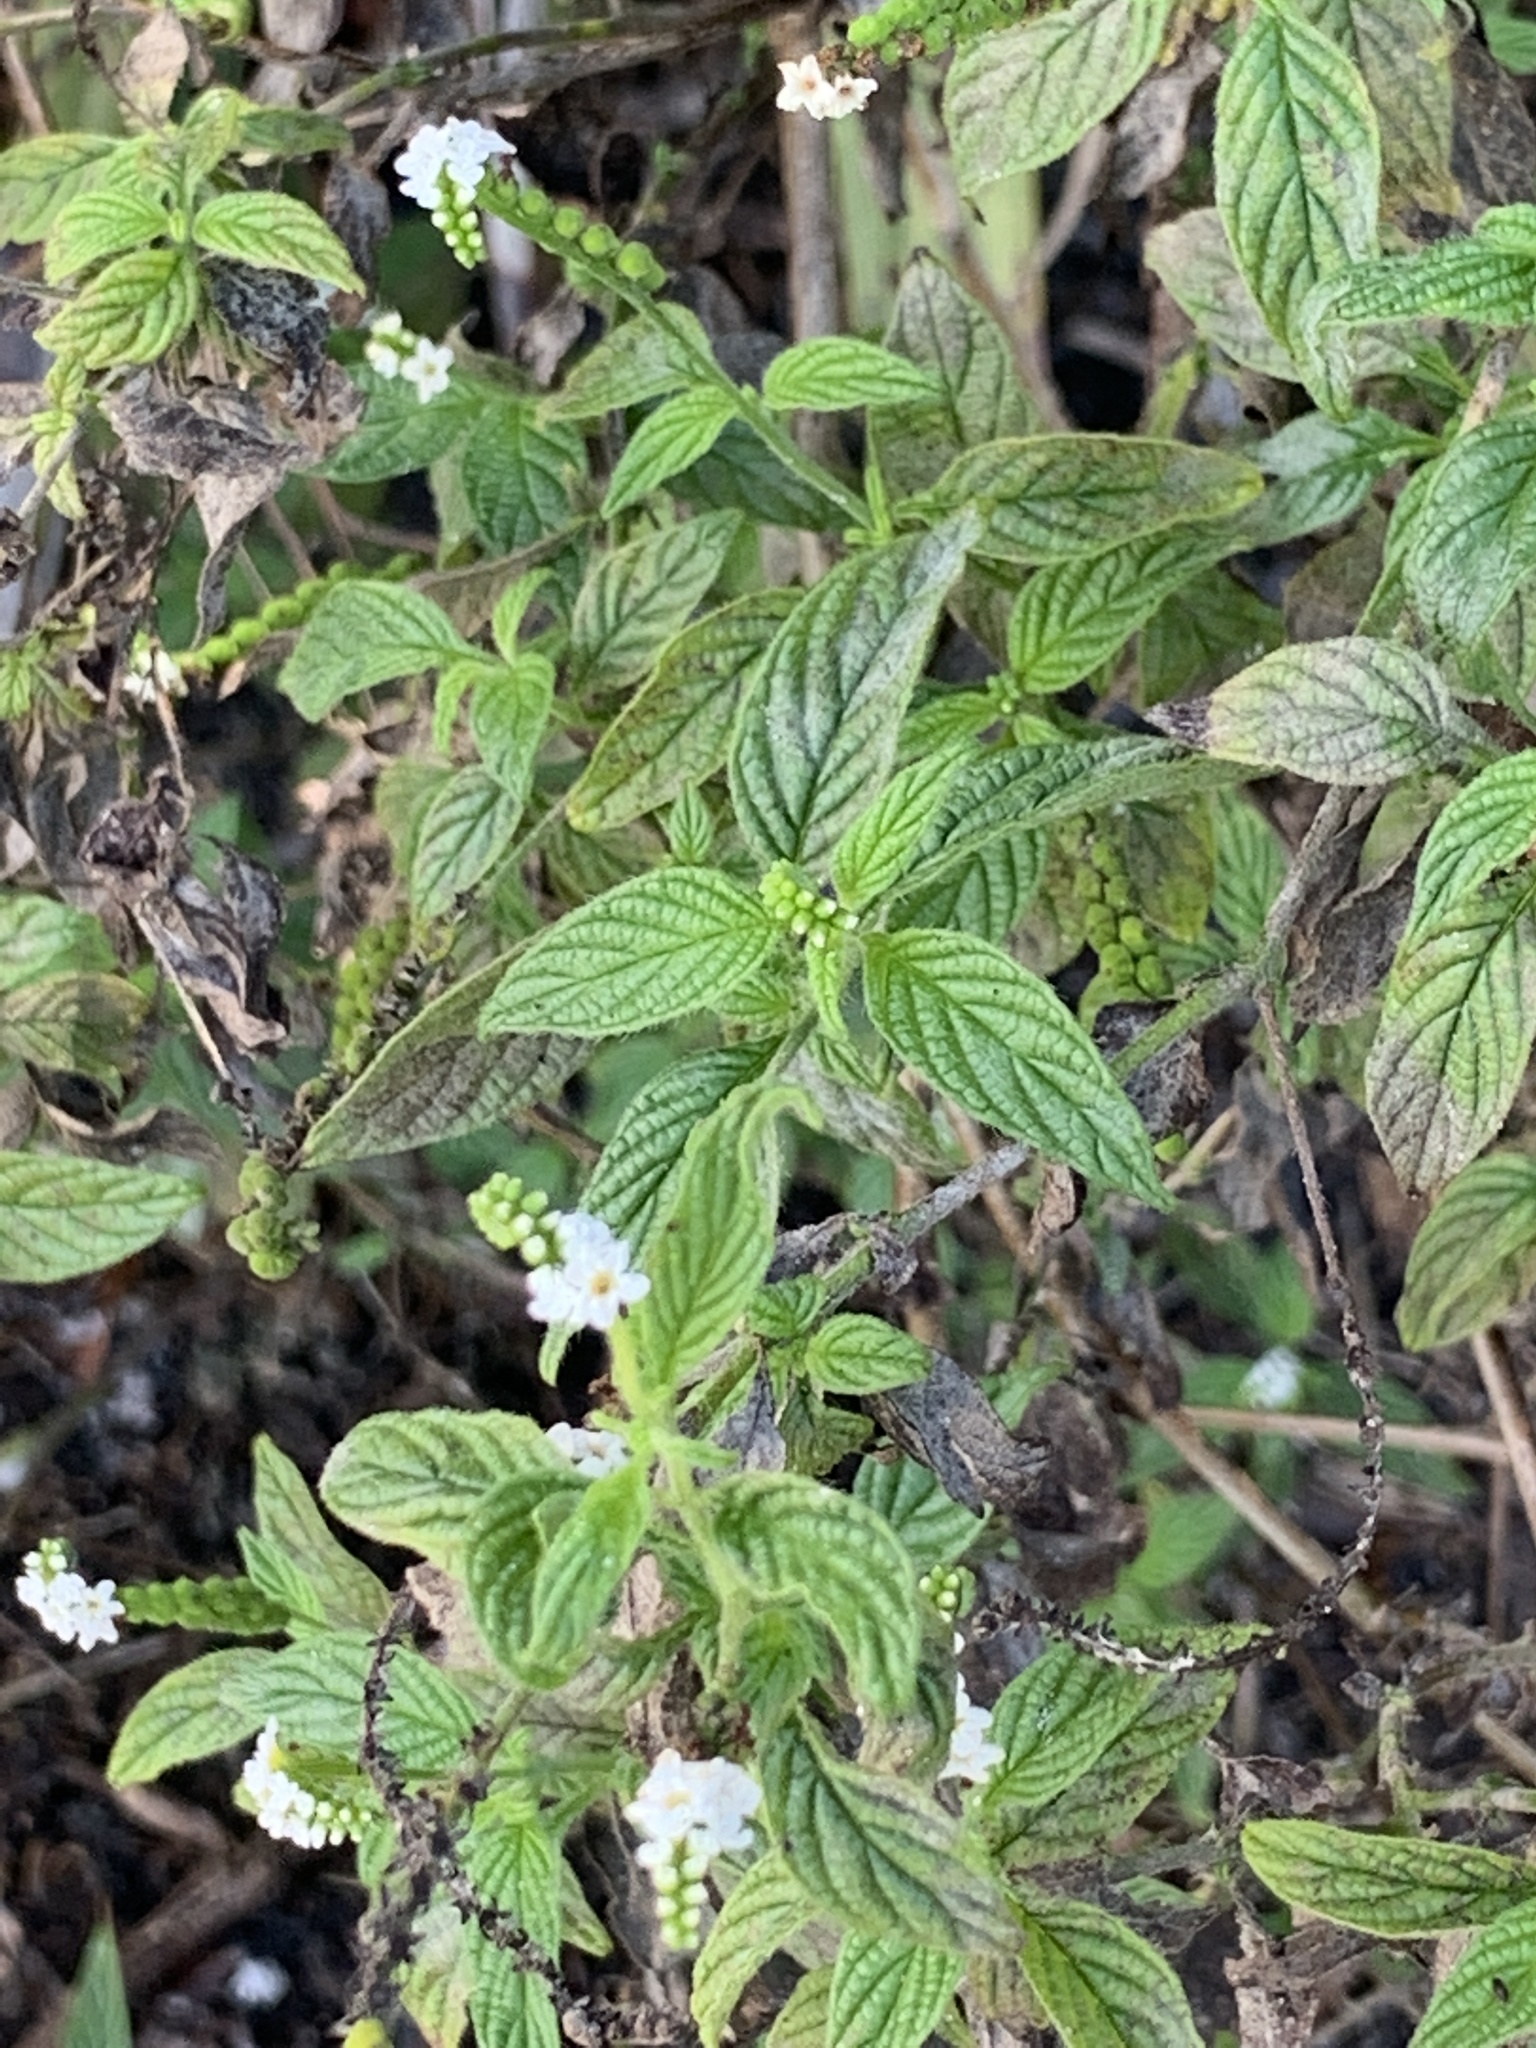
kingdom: Plantae
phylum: Tracheophyta
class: Magnoliopsida
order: Boraginales
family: Heliotropiaceae
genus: Heliotropium
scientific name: Heliotropium angiospermum
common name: Eye bright
